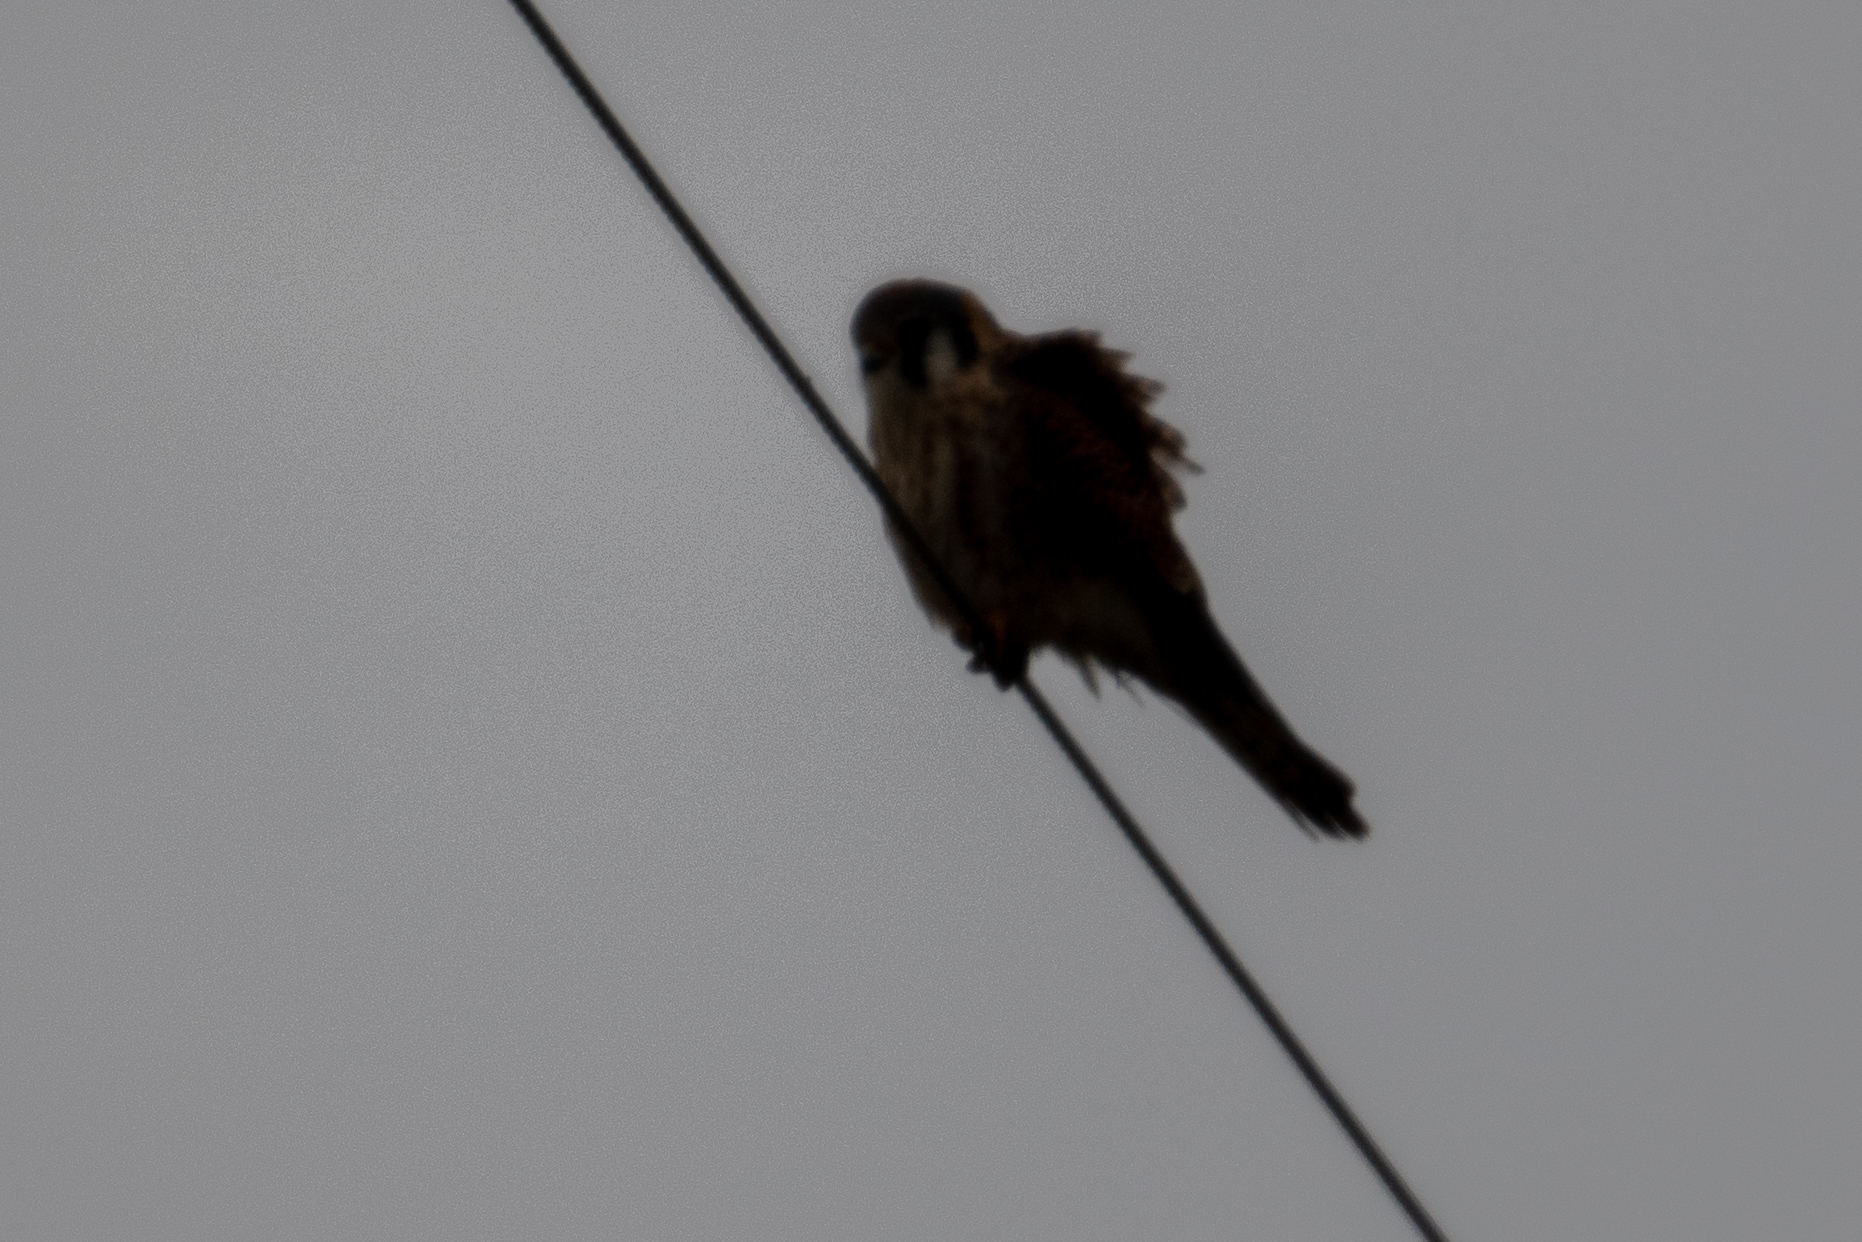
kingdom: Animalia
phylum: Chordata
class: Aves
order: Falconiformes
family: Falconidae
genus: Falco
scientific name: Falco sparverius
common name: American kestrel
